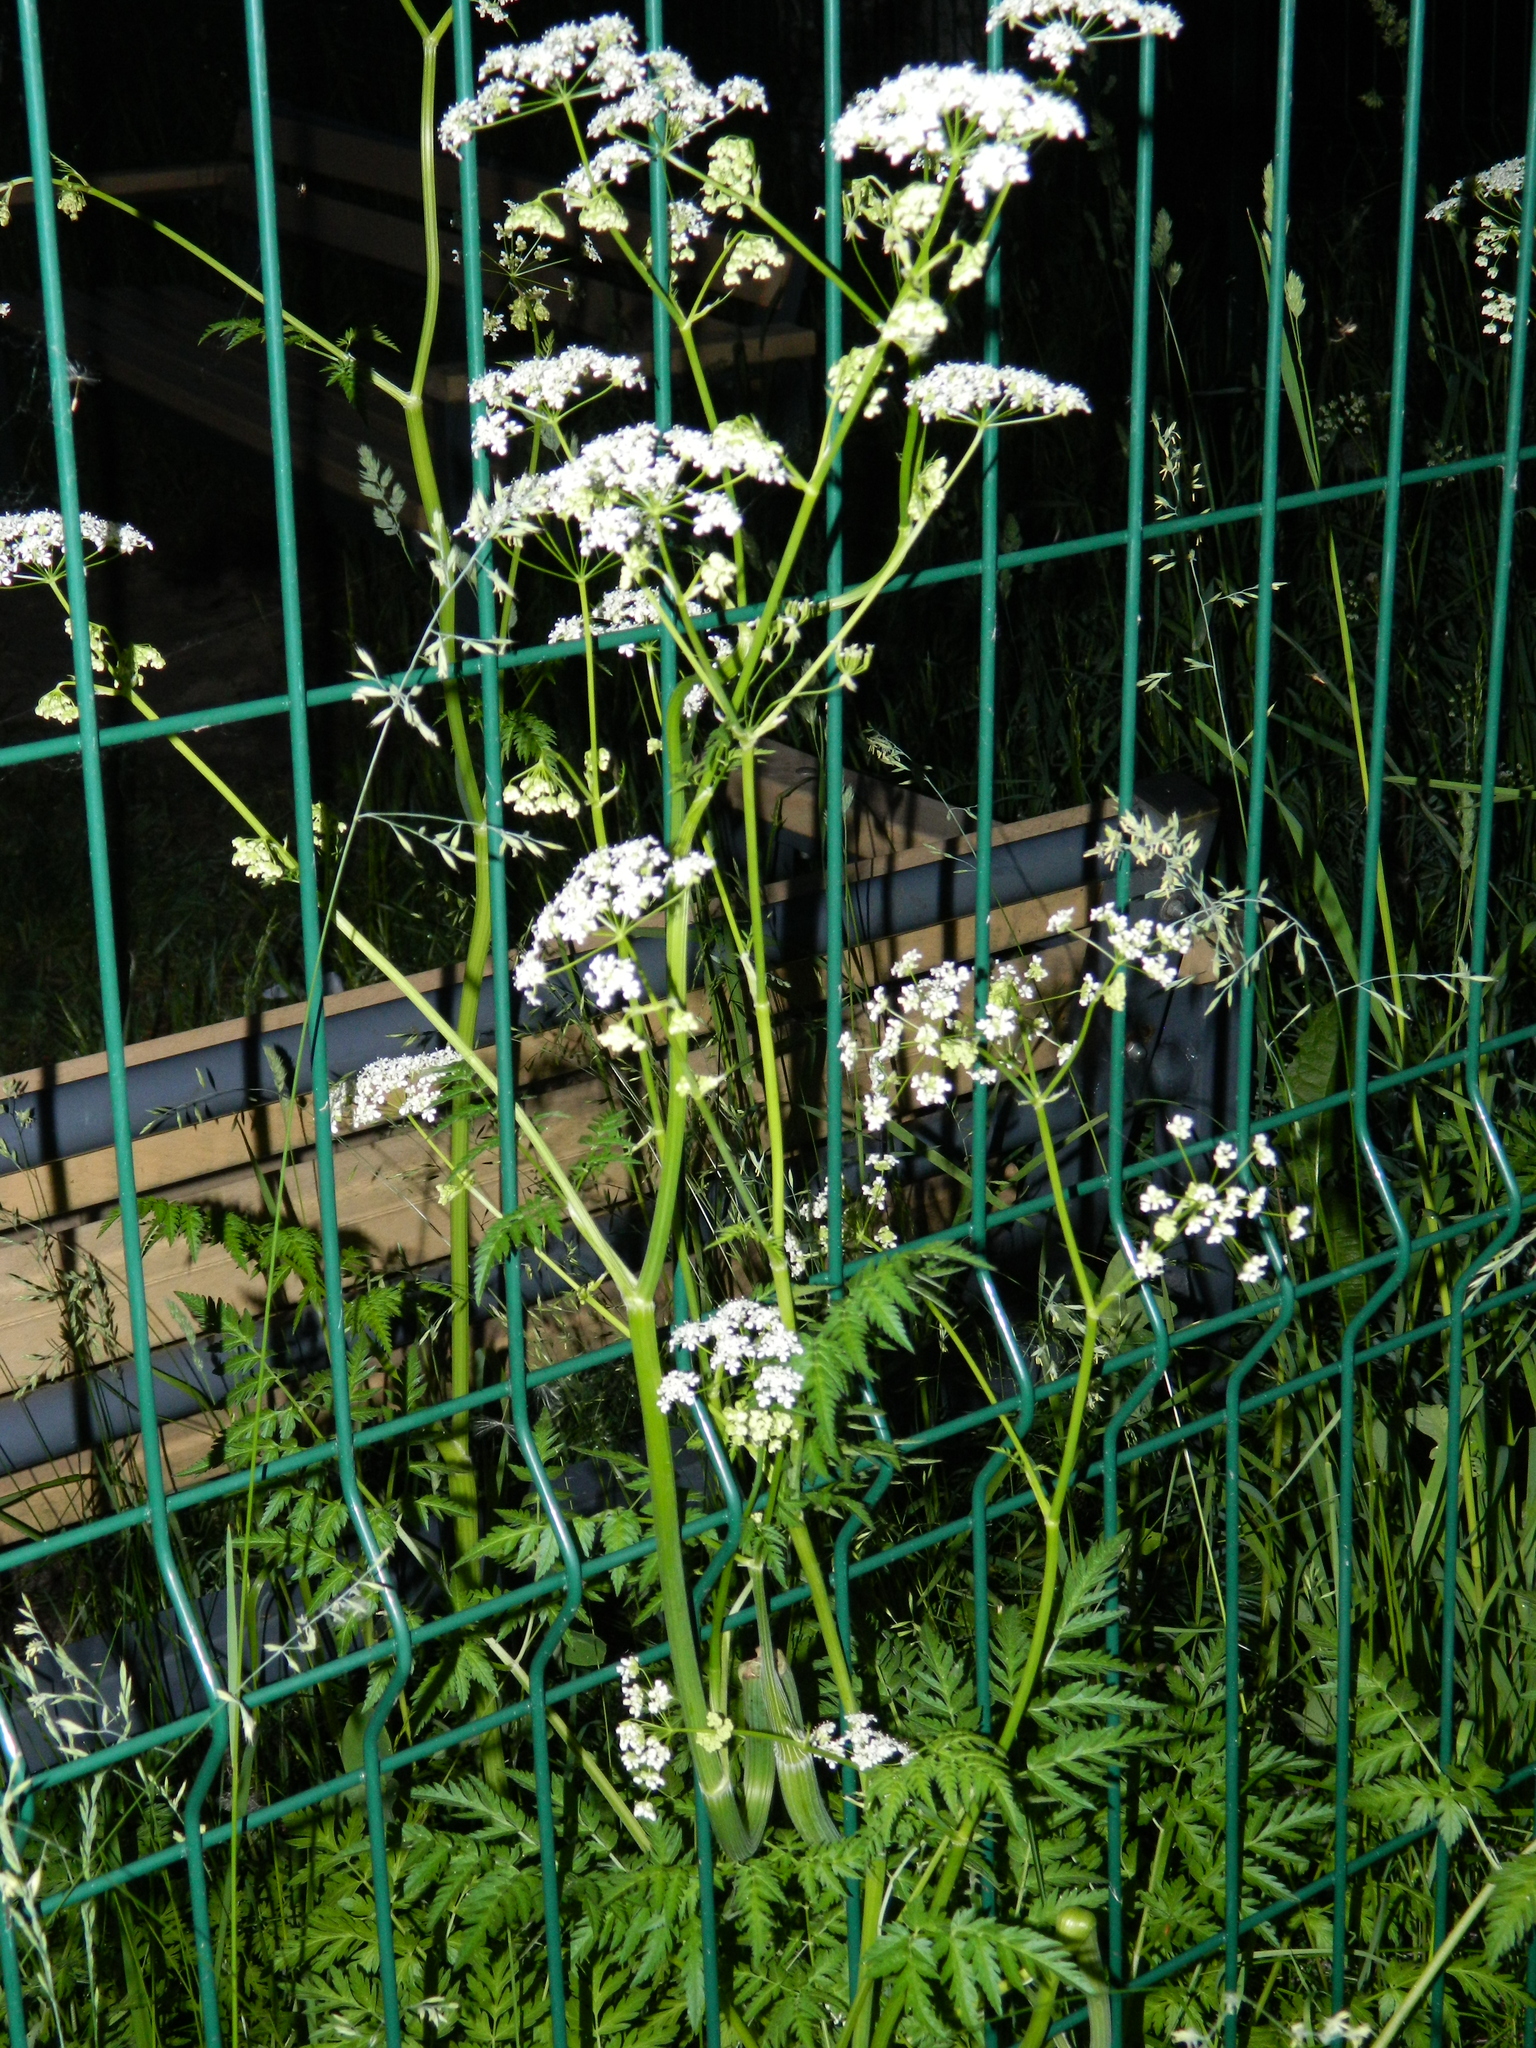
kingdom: Plantae
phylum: Tracheophyta
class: Magnoliopsida
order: Apiales
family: Apiaceae
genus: Anthriscus
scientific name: Anthriscus sylvestris
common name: Cow parsley
